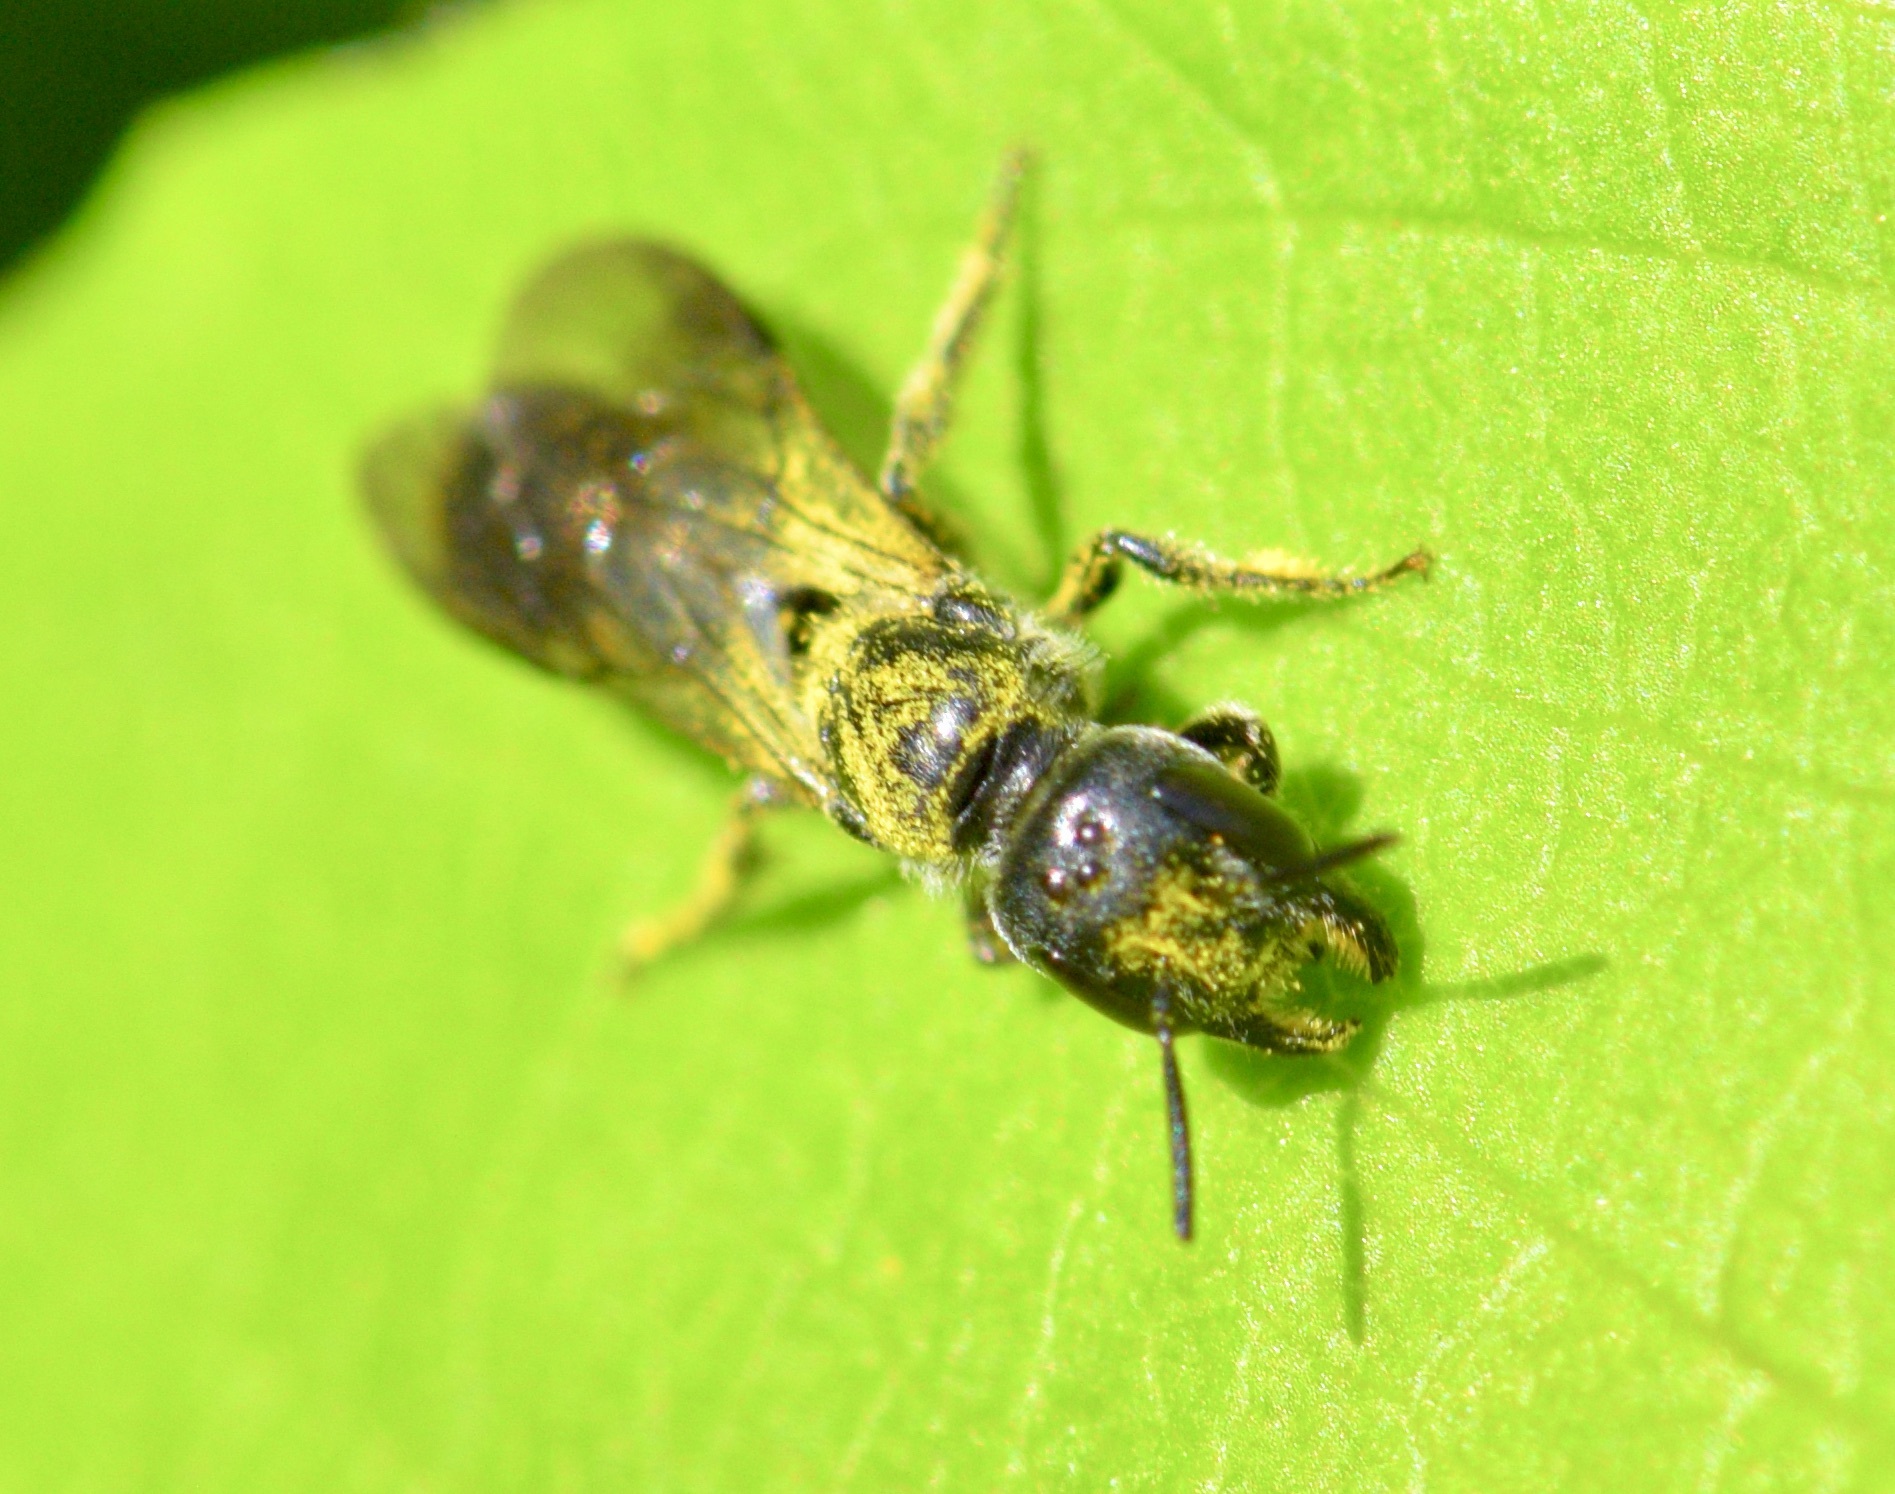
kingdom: Animalia
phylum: Arthropoda
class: Insecta
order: Hymenoptera
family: Megachilidae
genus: Chelostoma
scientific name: Chelostoma philadelphi
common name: Mock-orange scissor bee
